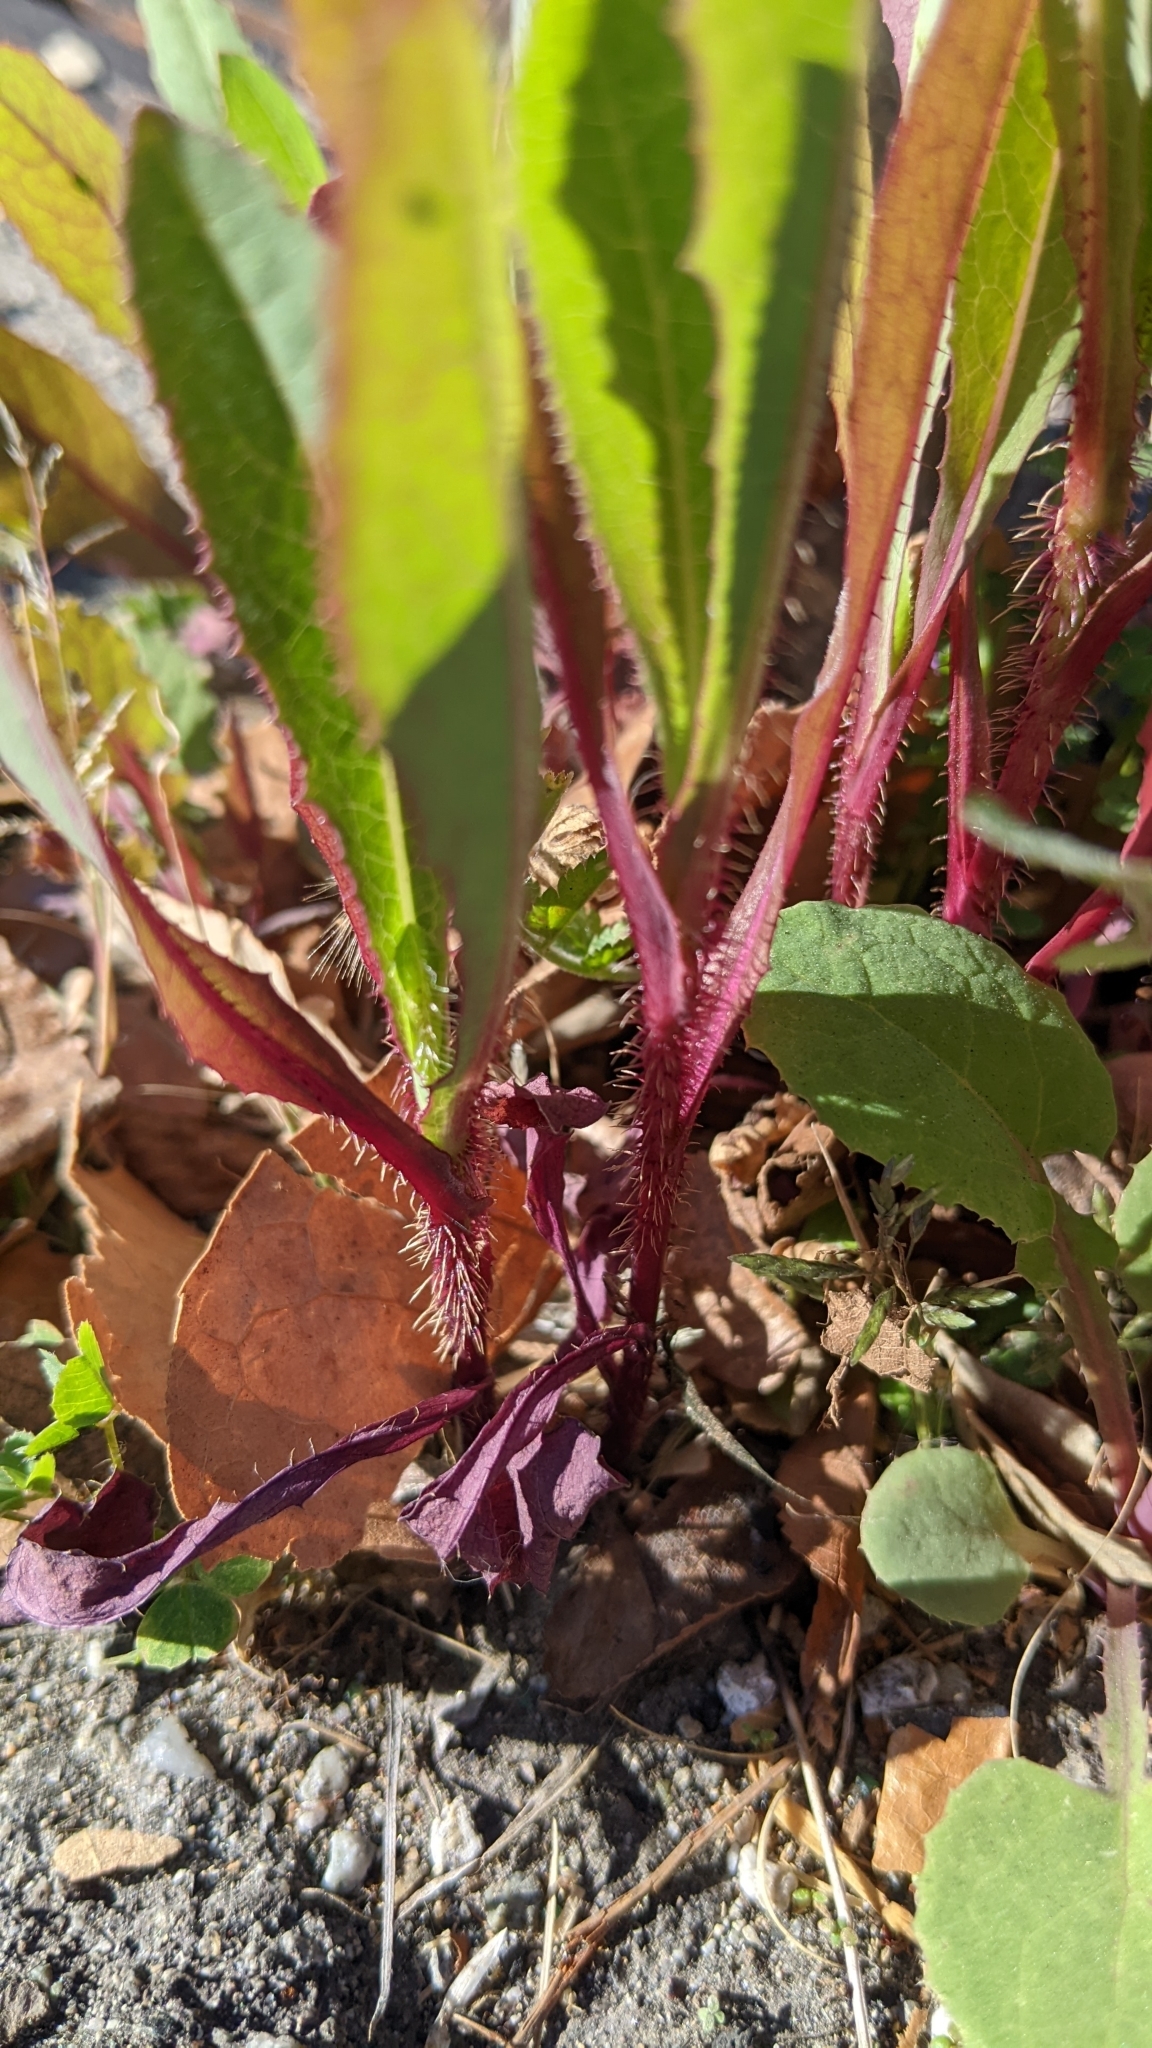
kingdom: Plantae
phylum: Tracheophyta
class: Magnoliopsida
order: Asterales
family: Asteraceae
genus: Lactuca
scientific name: Lactuca serriola
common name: Prickly lettuce
